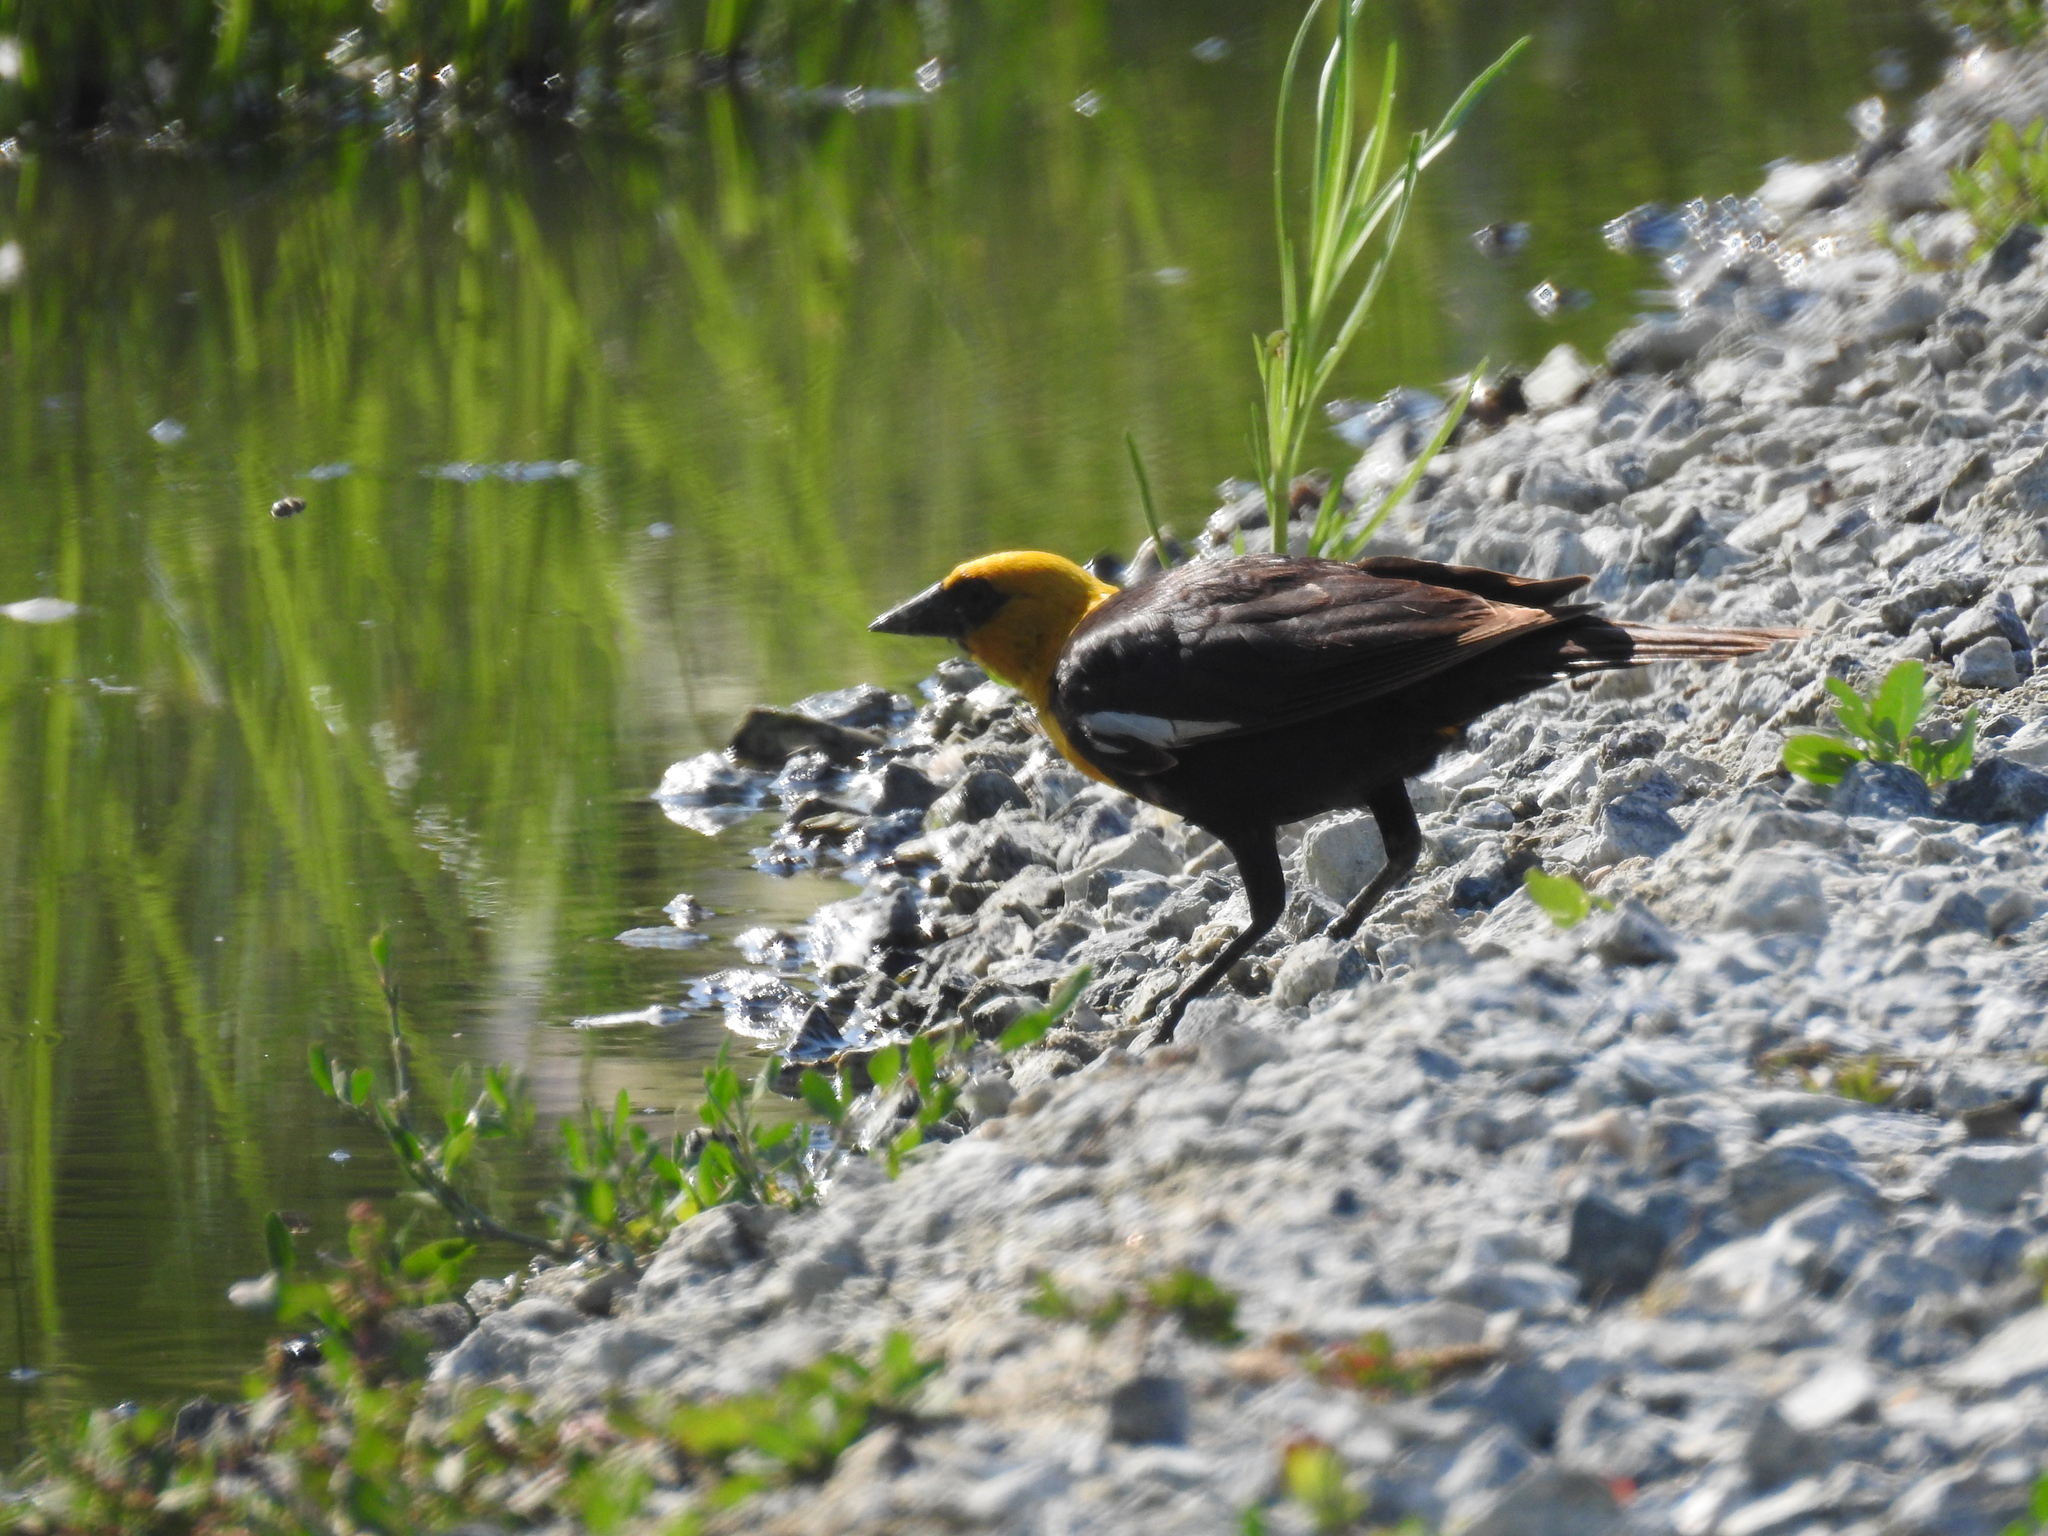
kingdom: Animalia
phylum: Chordata
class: Aves
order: Passeriformes
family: Icteridae
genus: Xanthocephalus
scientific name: Xanthocephalus xanthocephalus
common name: Yellow-headed blackbird
